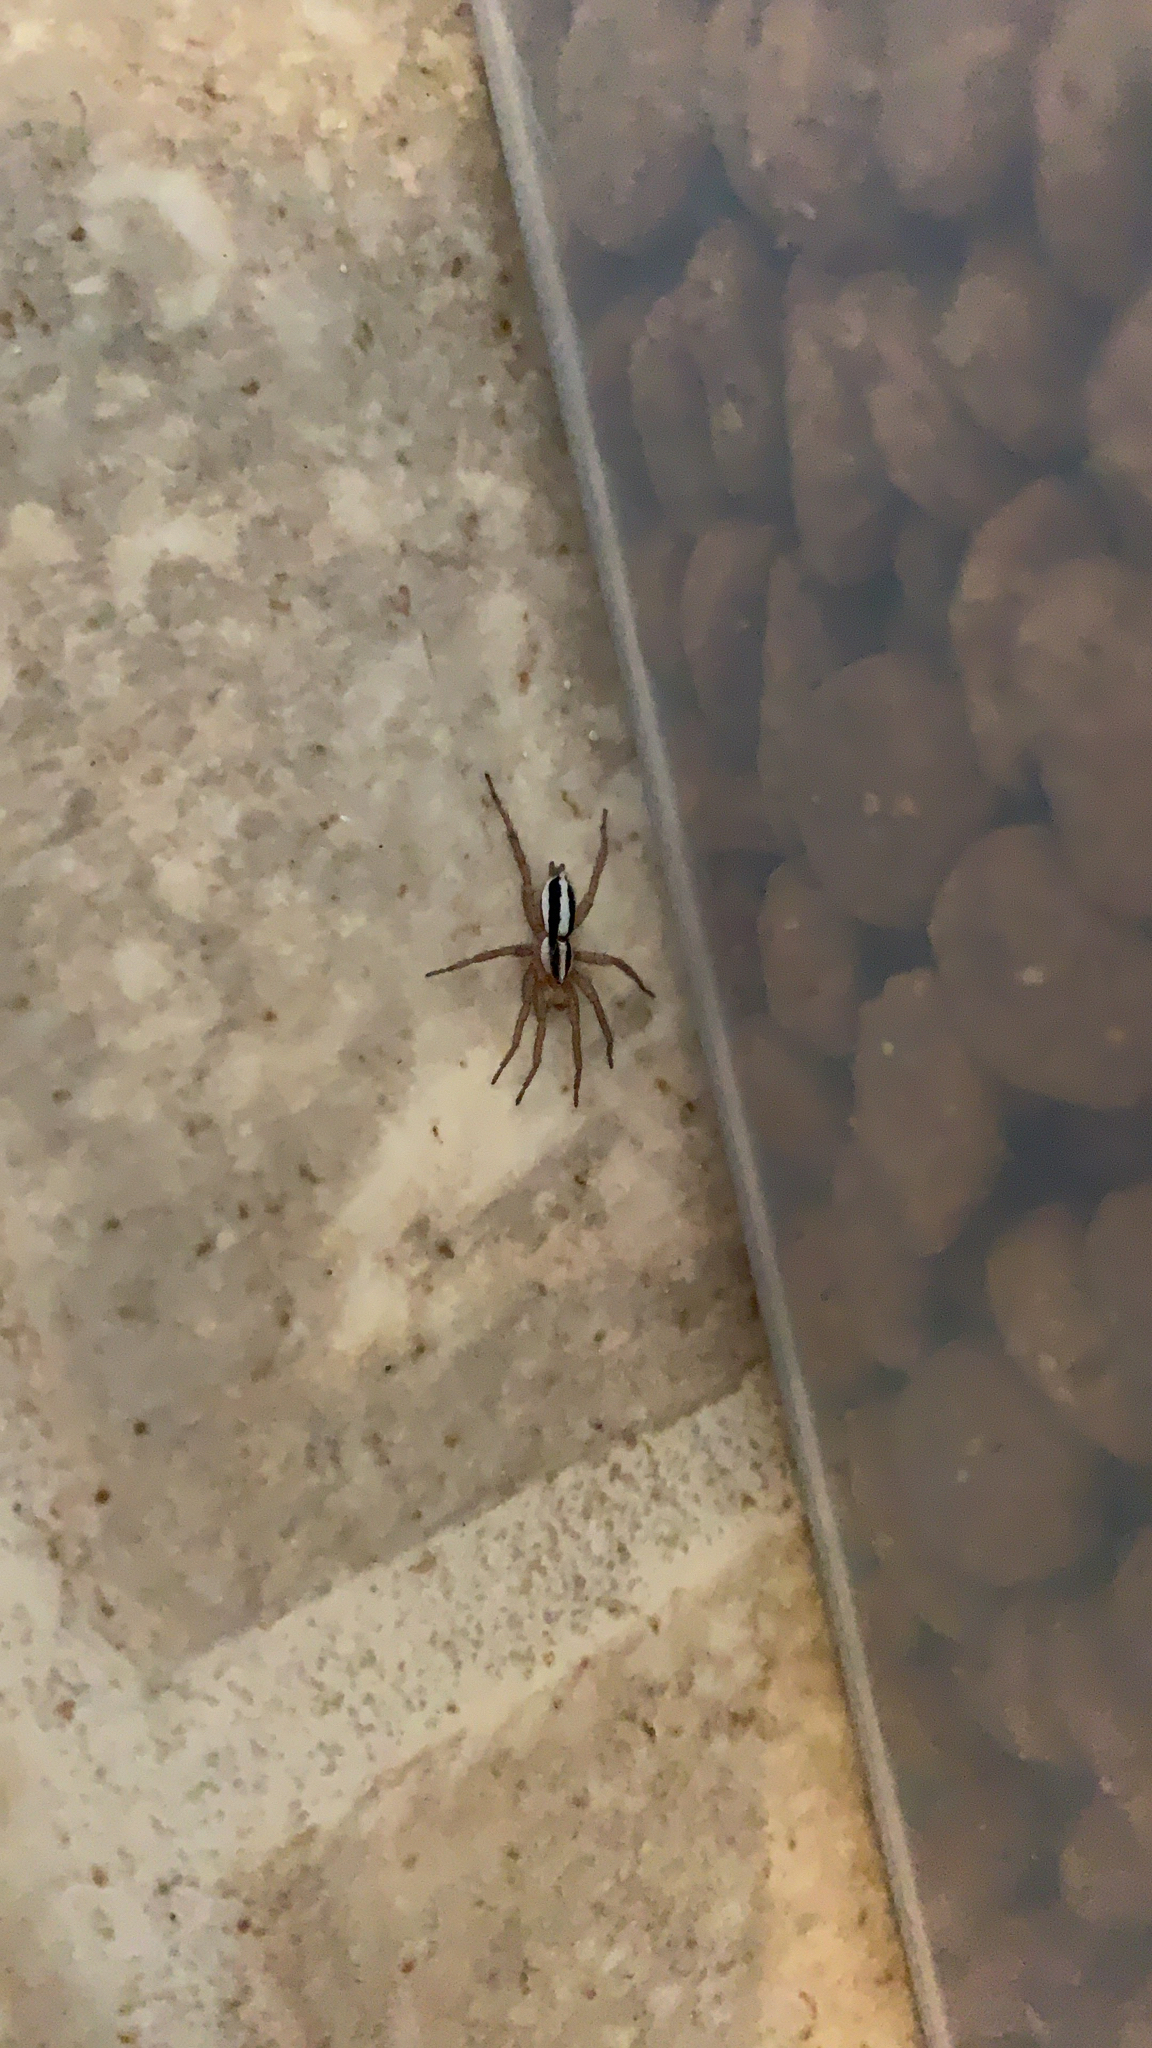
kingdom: Animalia
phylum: Arthropoda
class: Arachnida
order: Araneae
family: Gnaphosidae
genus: Cesonia
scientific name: Cesonia bilineata
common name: Two-lined stealthy ground spider
